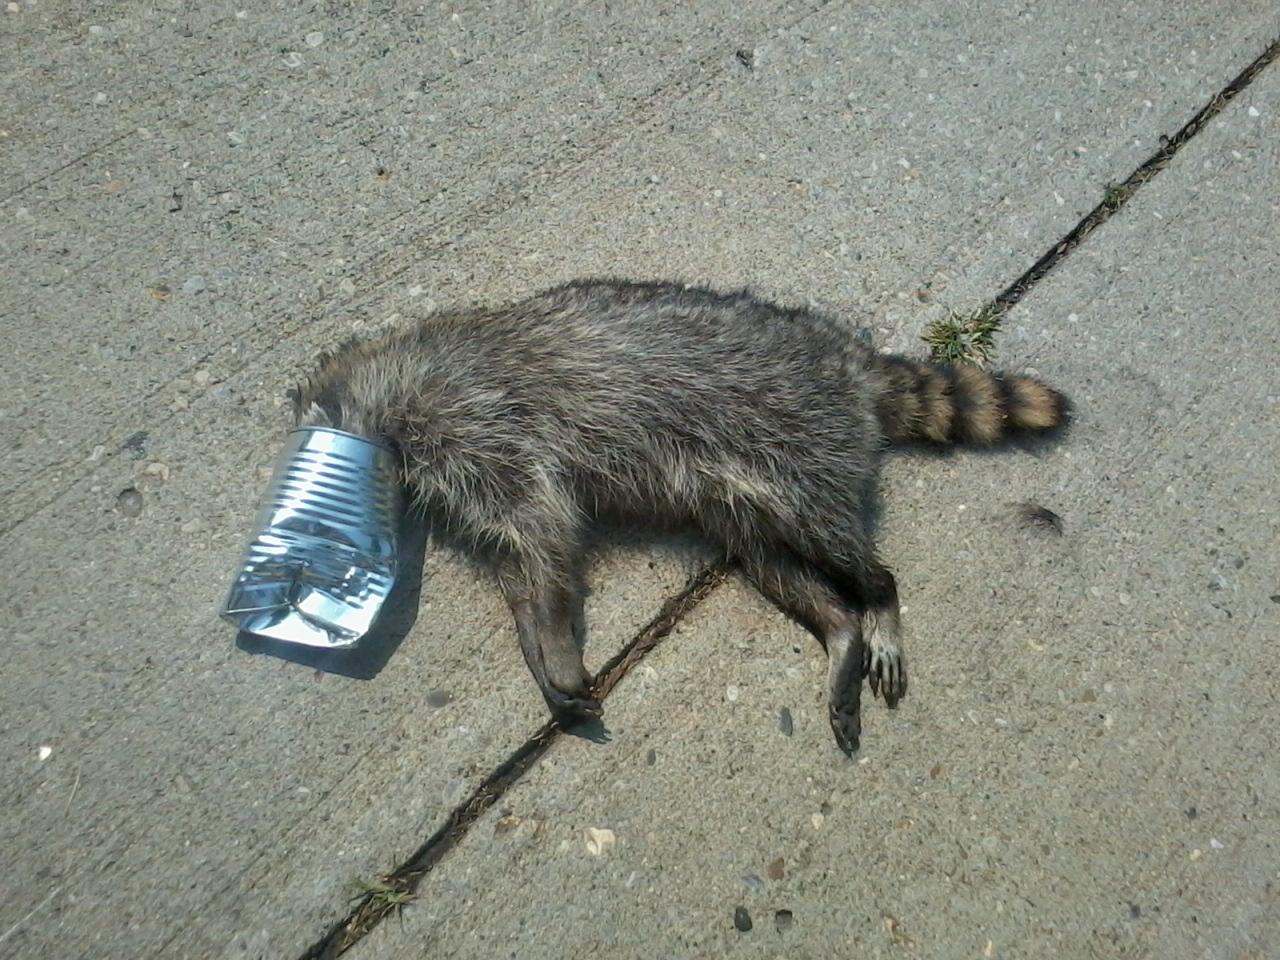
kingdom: Animalia
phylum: Chordata
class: Mammalia
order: Carnivora
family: Procyonidae
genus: Procyon
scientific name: Procyon lotor
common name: Raccoon
